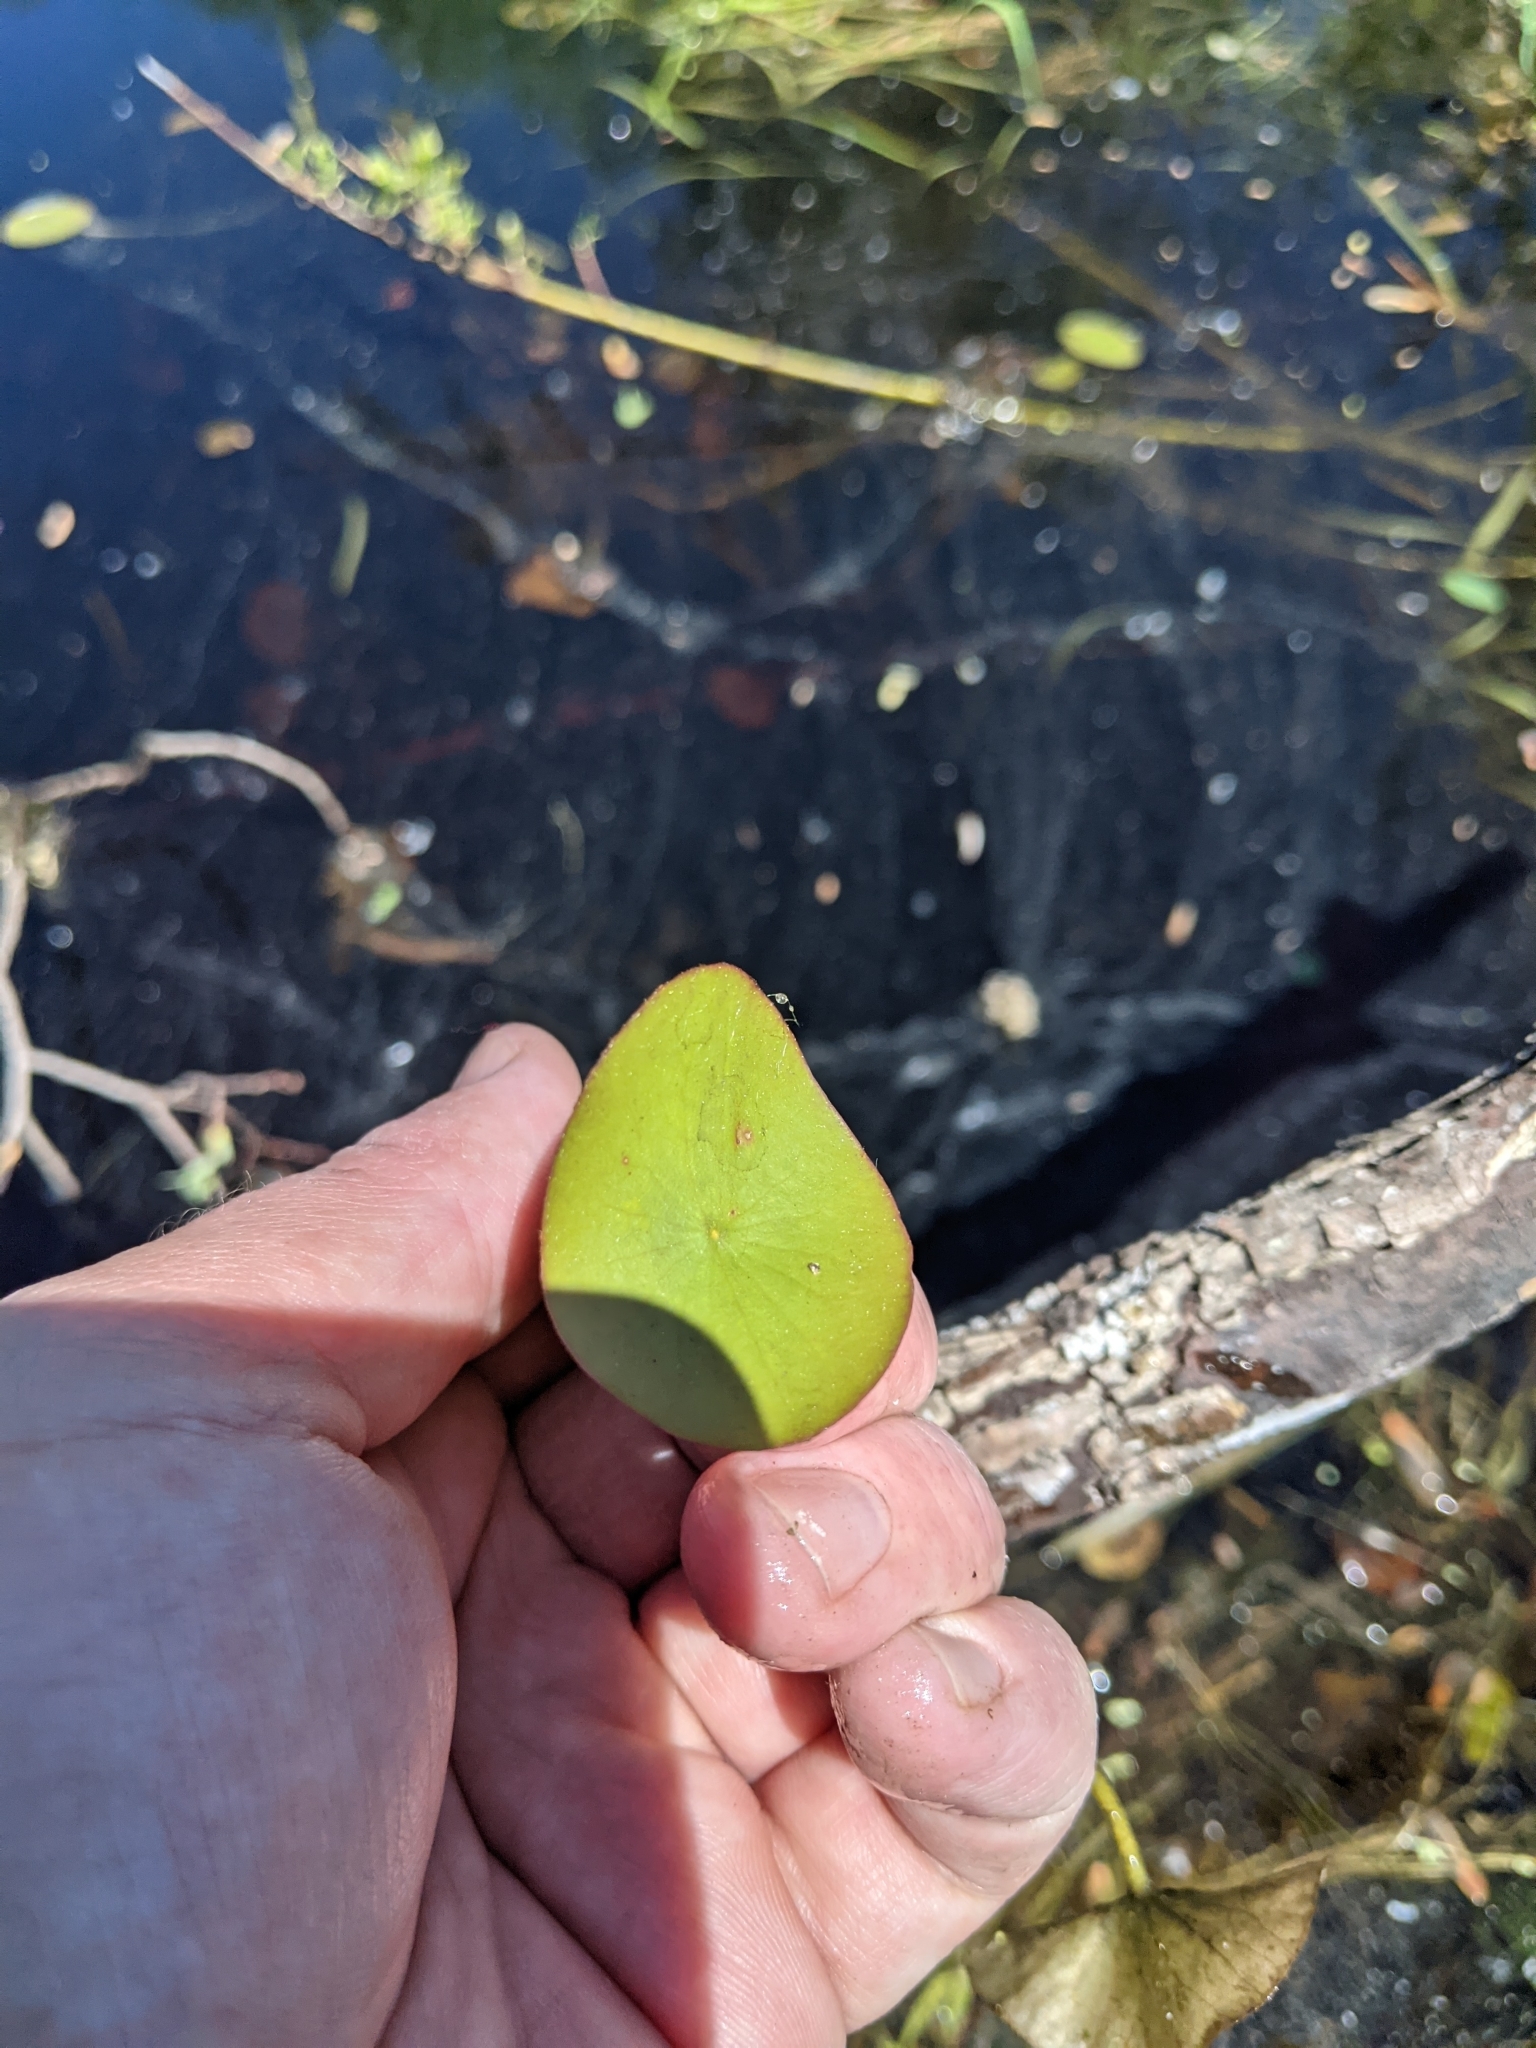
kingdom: Plantae
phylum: Tracheophyta
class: Magnoliopsida
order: Nymphaeales
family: Cabombaceae
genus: Brasenia
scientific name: Brasenia schreberi
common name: Water-shield
